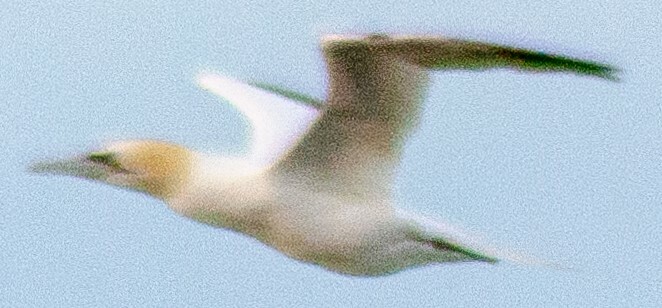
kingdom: Animalia
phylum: Chordata
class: Aves
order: Suliformes
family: Sulidae
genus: Morus
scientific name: Morus bassanus
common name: Northern gannet
